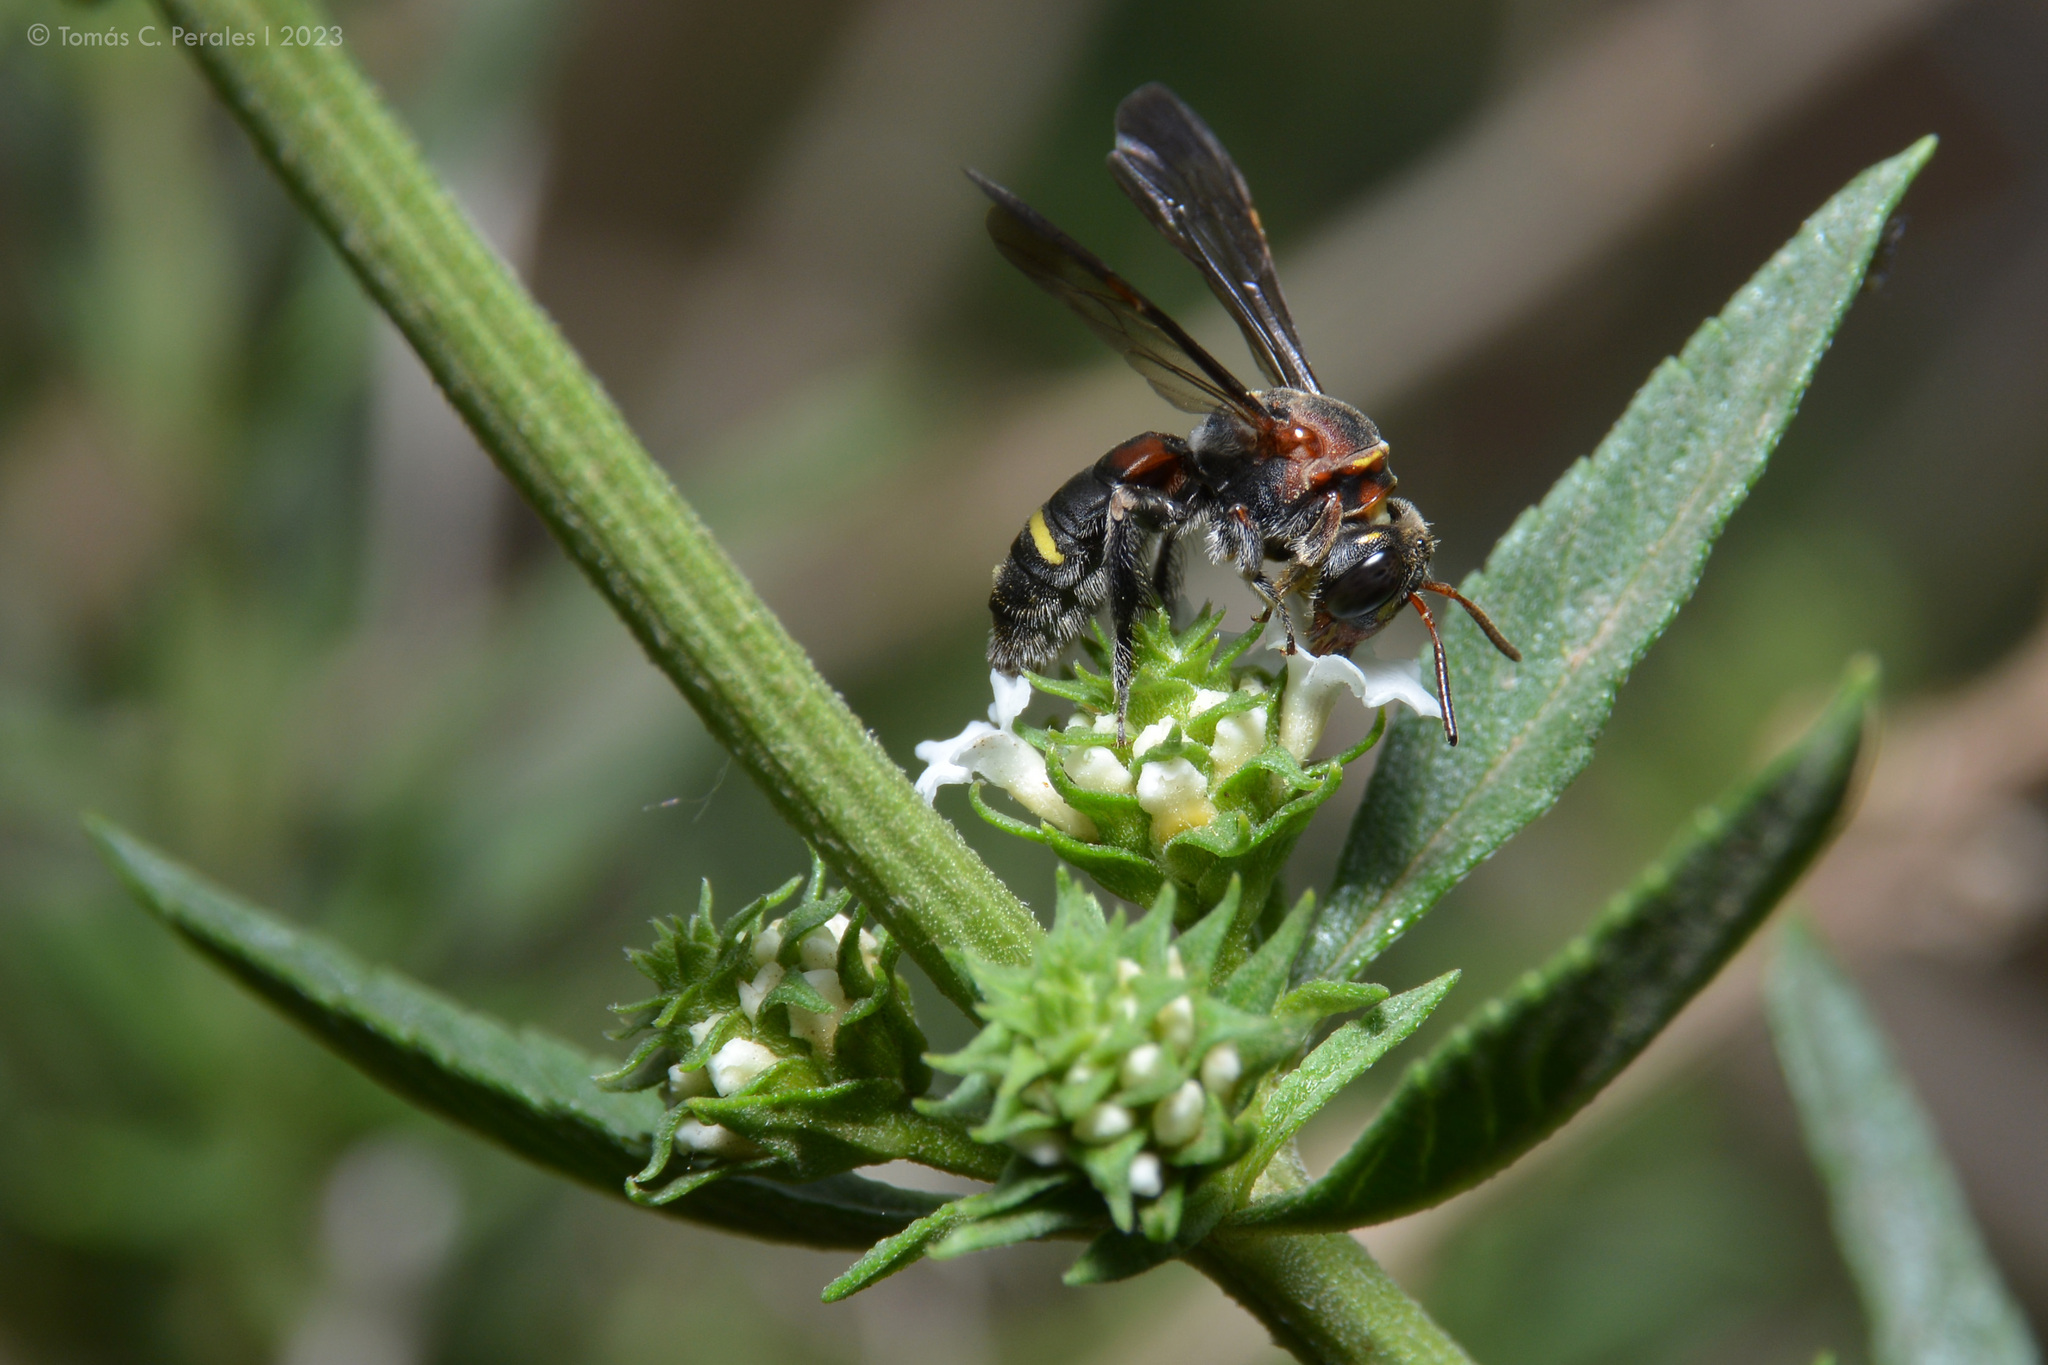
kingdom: Plantae
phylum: Tracheophyta
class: Magnoliopsida
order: Lamiales
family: Verbenaceae
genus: Lippia
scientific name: Lippia turbinata
